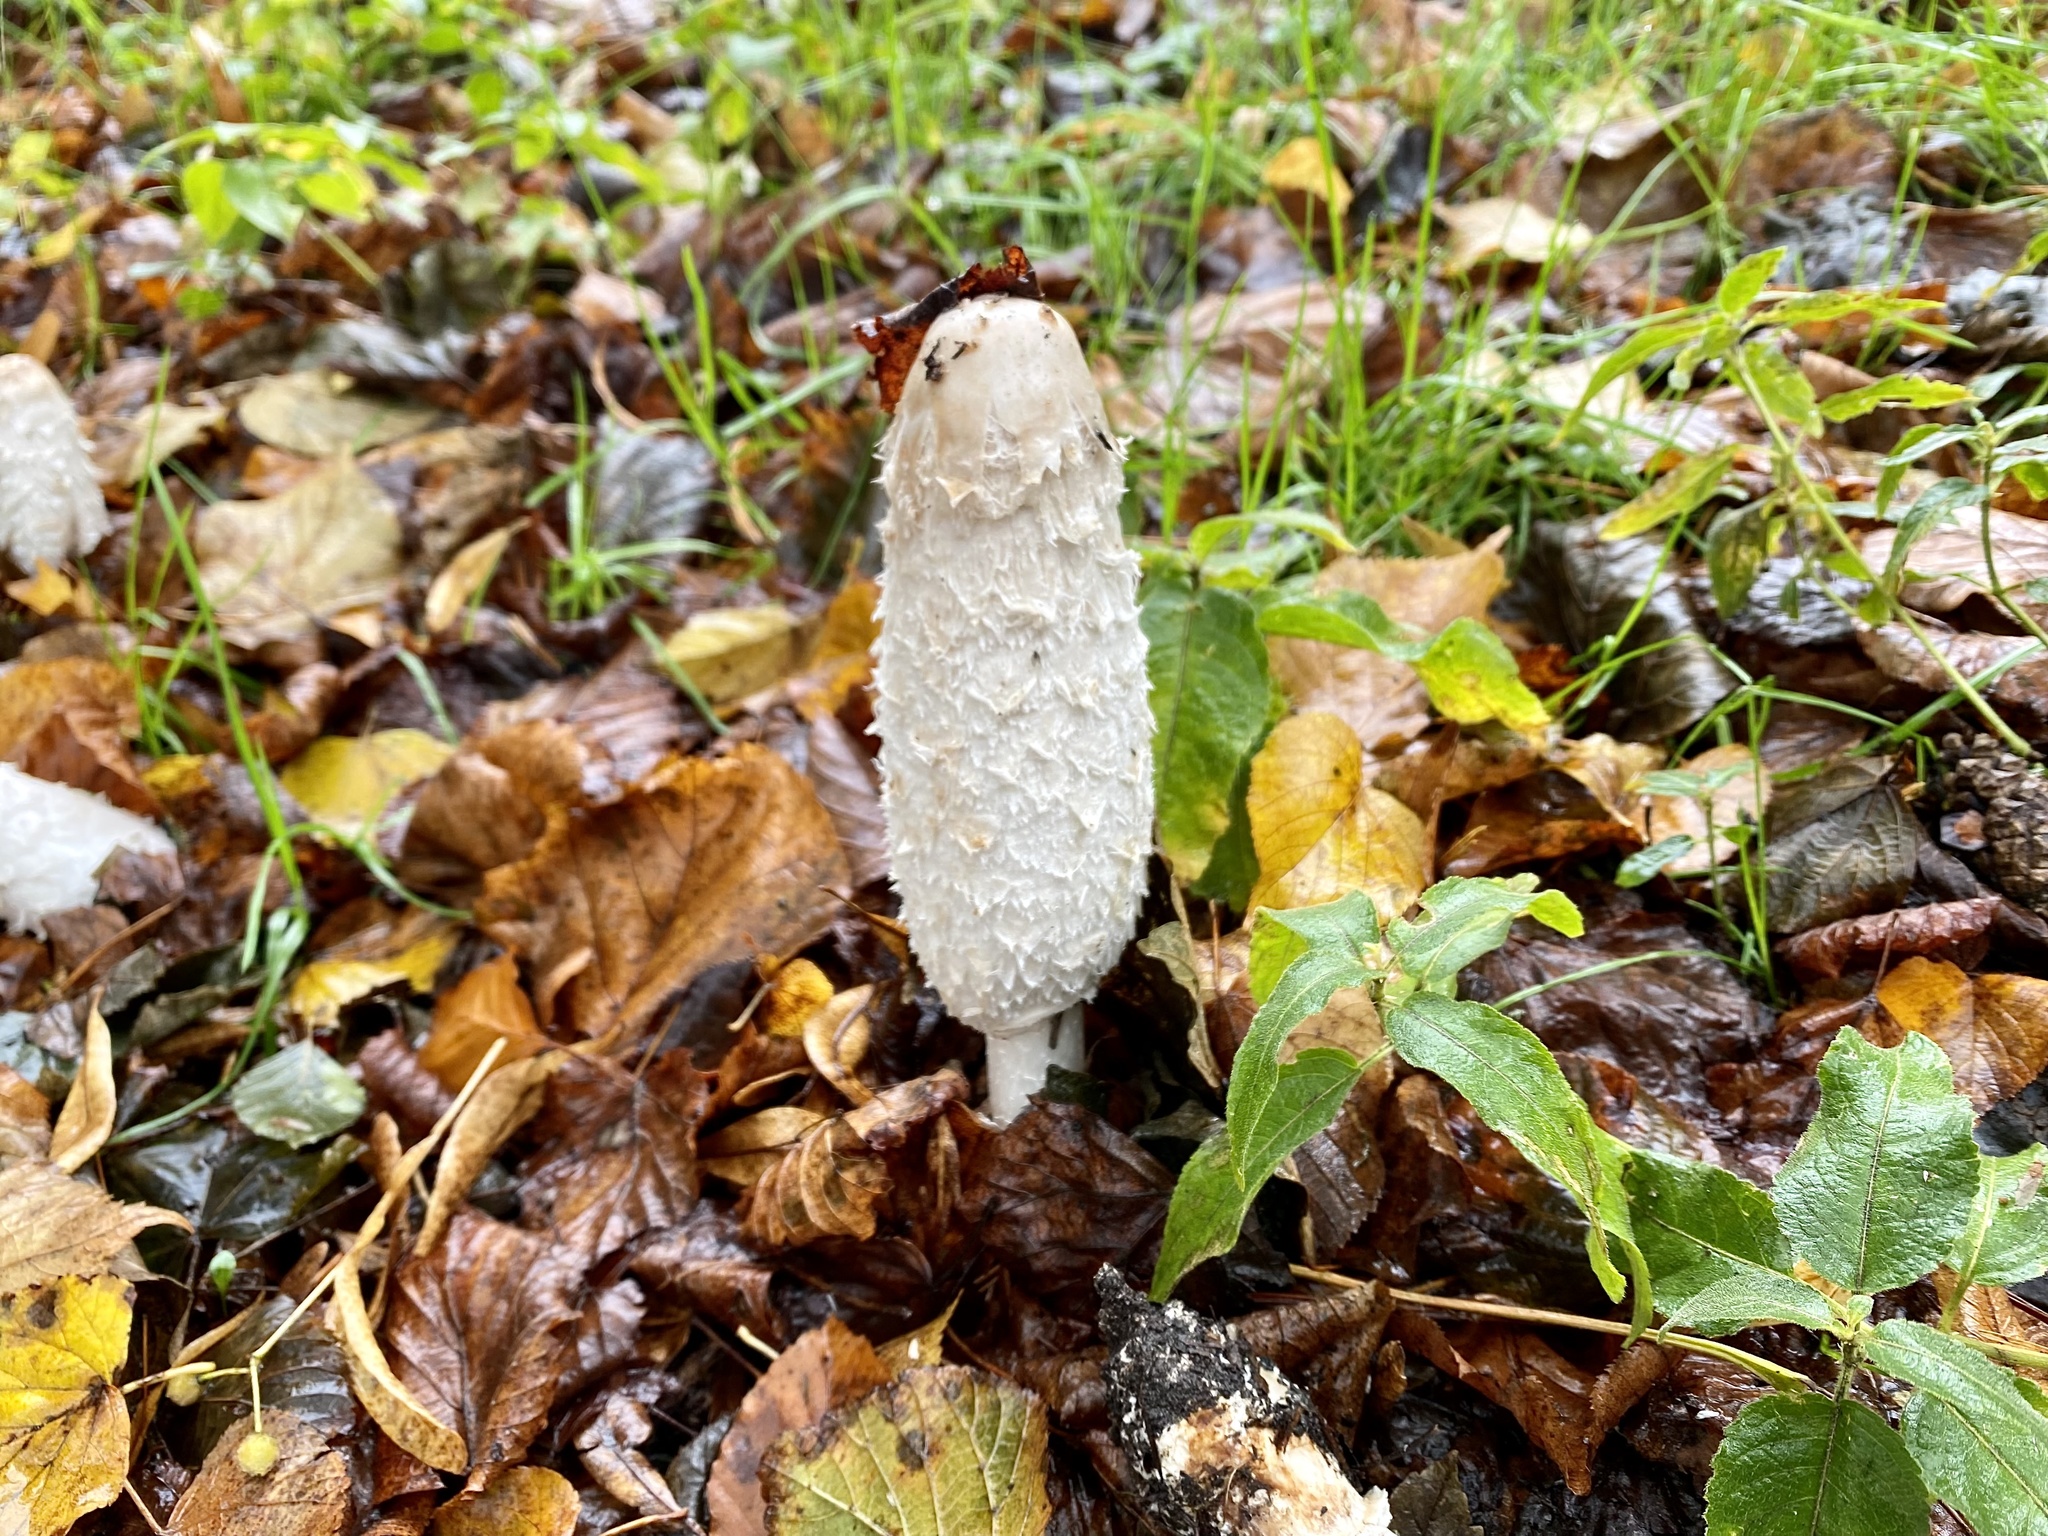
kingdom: Fungi
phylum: Basidiomycota
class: Agaricomycetes
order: Agaricales
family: Agaricaceae
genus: Coprinus
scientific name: Coprinus comatus
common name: Lawyer's wig
